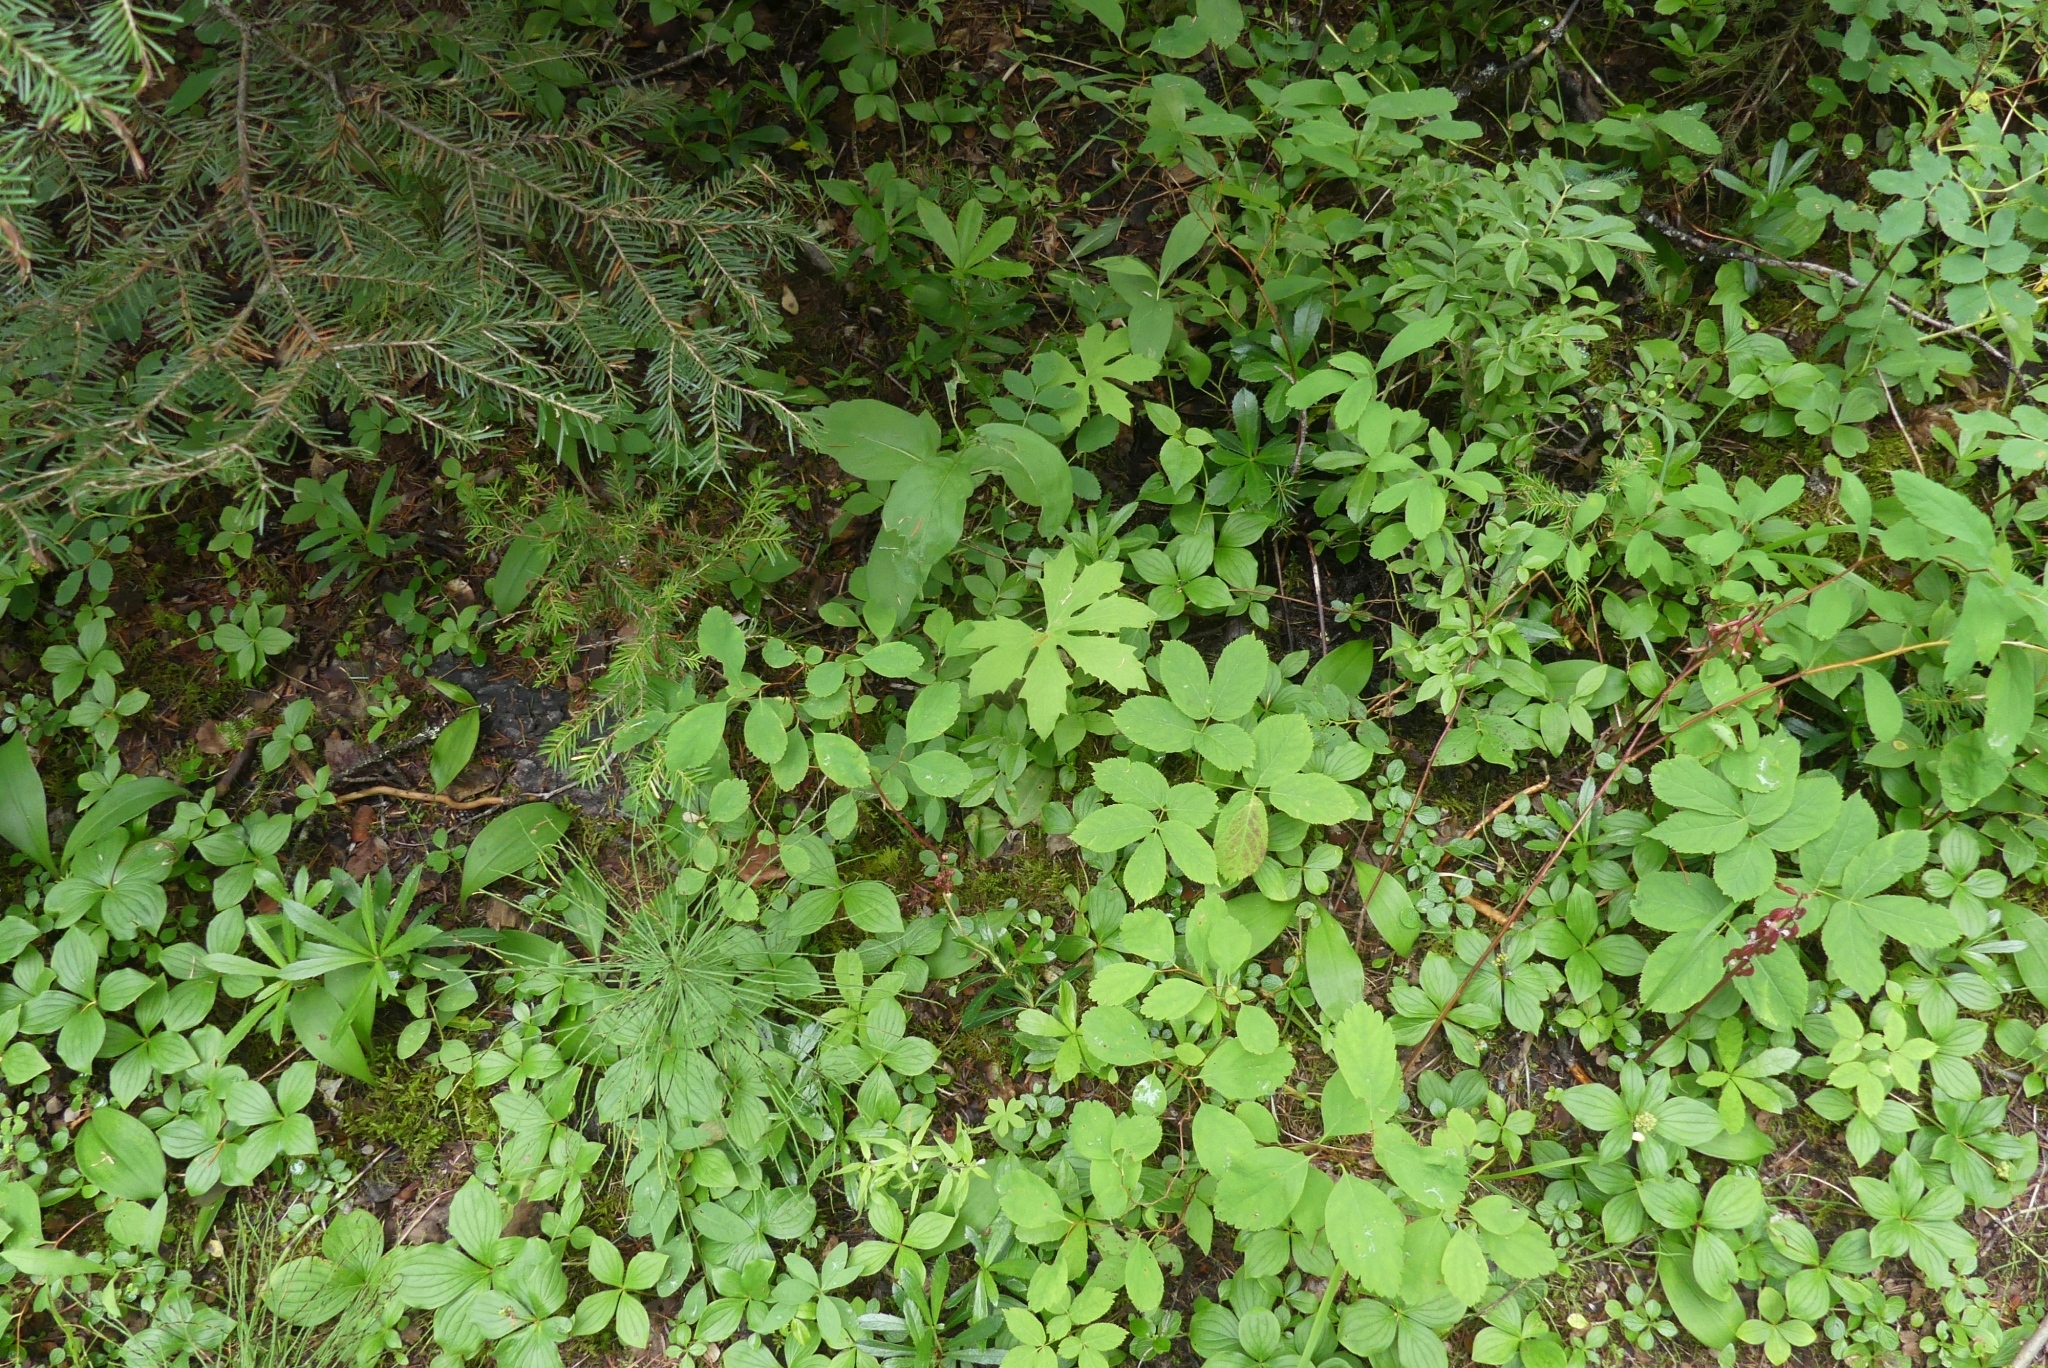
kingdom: Plantae
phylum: Tracheophyta
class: Magnoliopsida
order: Asterales
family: Asteraceae
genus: Petasites
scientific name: Petasites frigidus
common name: Arctic butterbur
